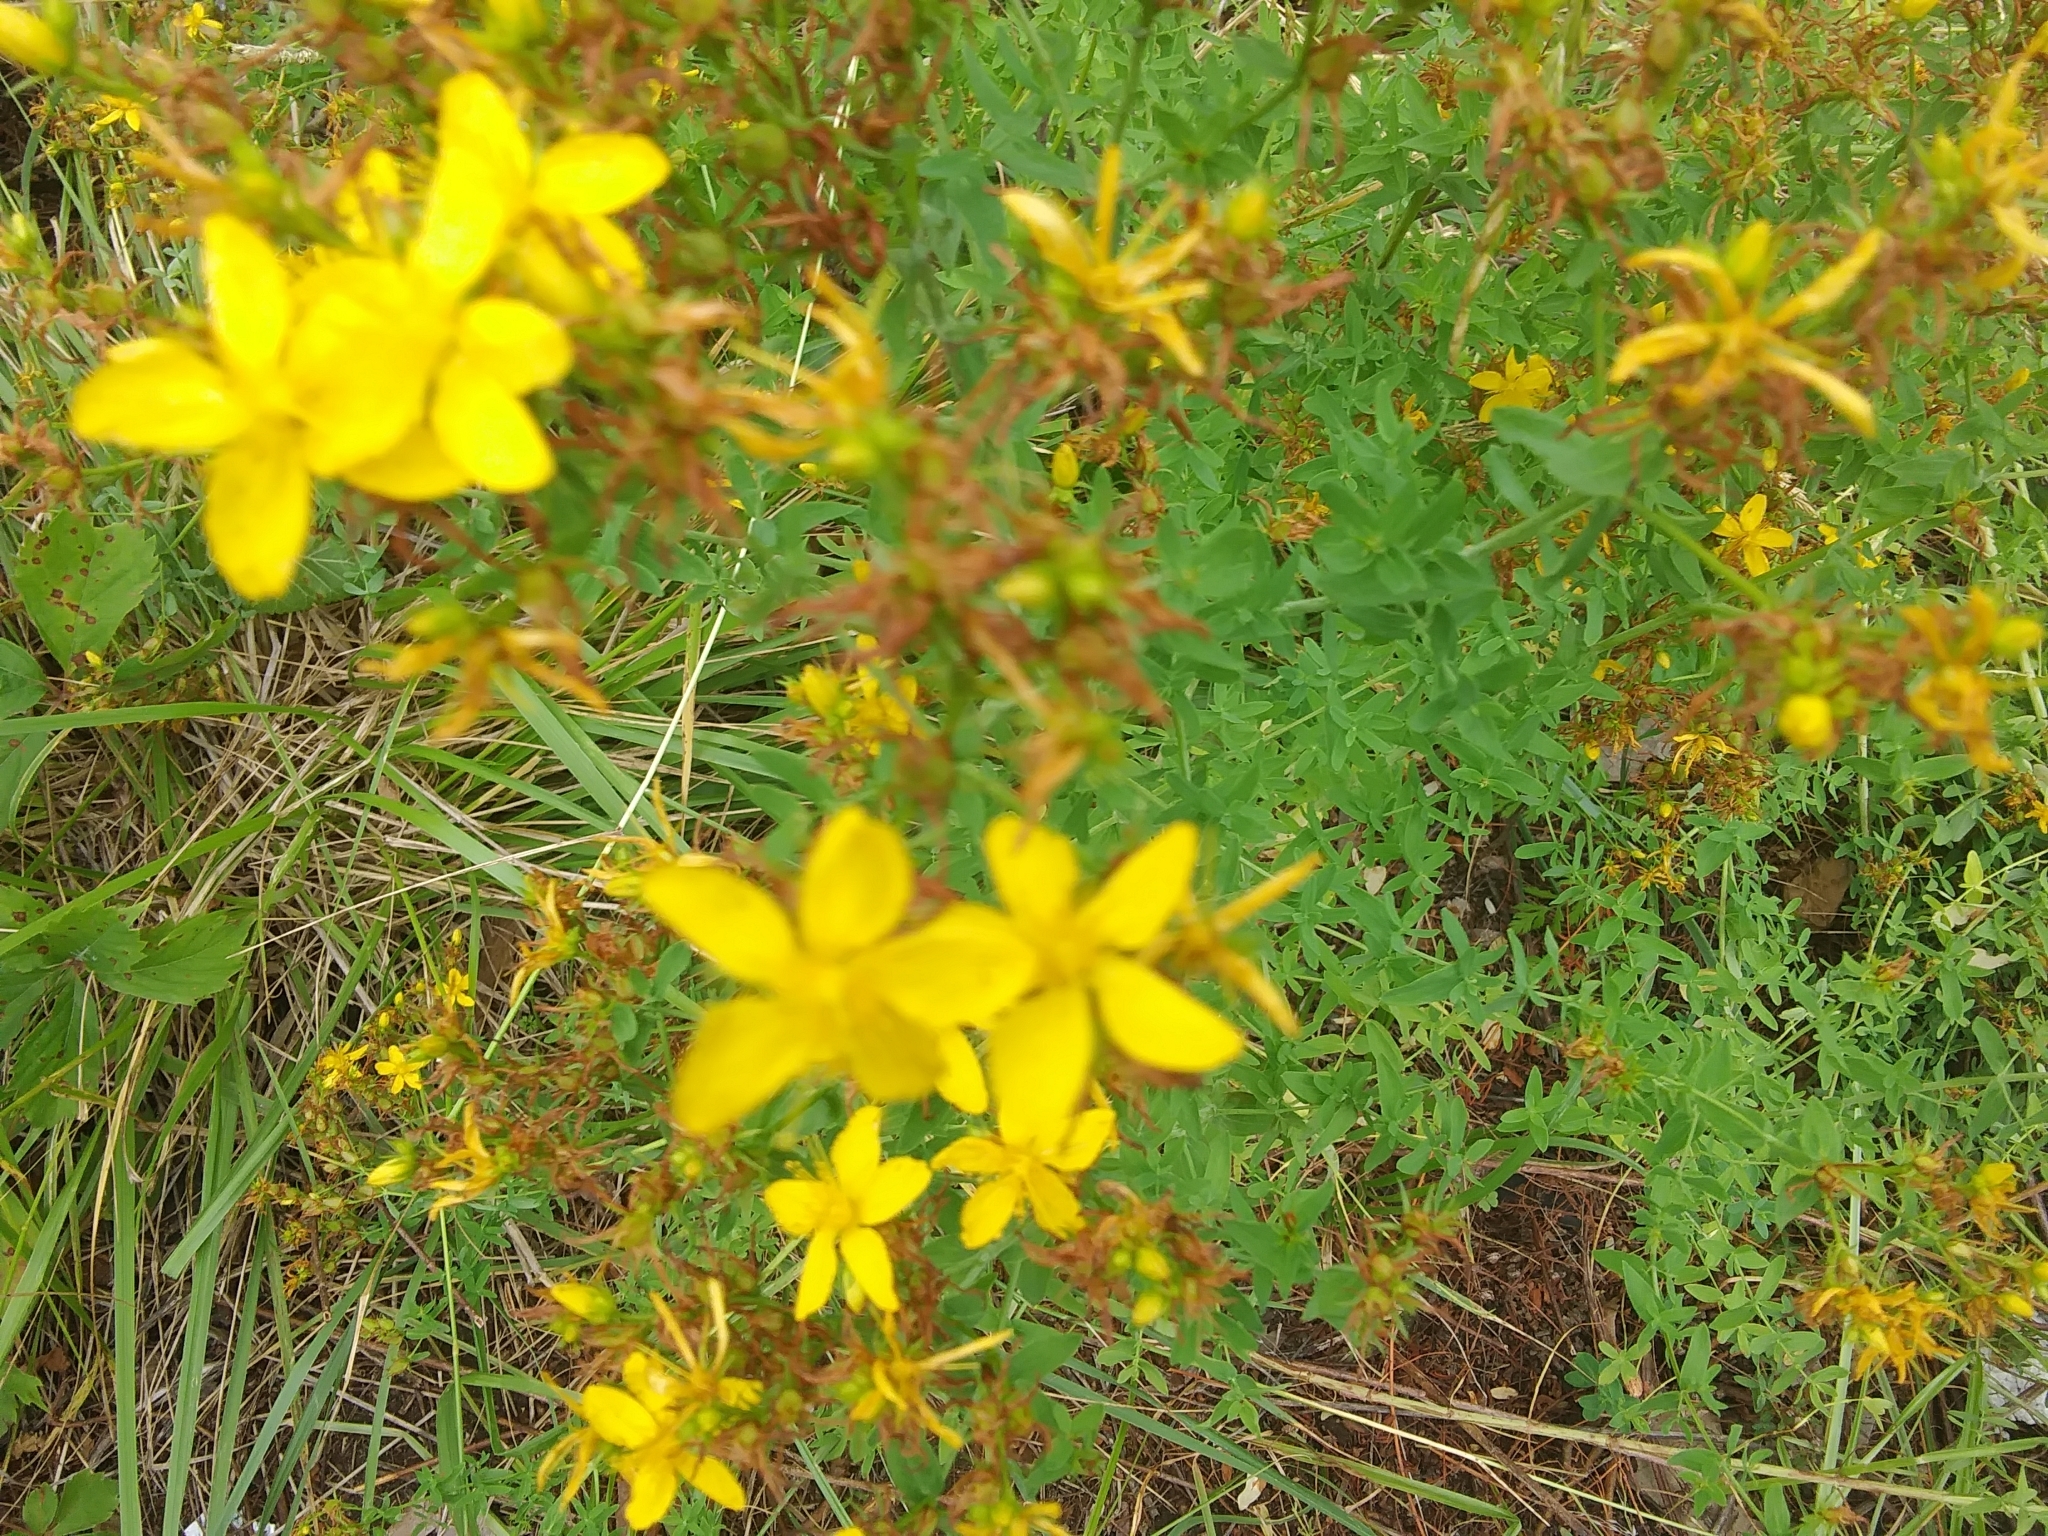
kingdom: Plantae
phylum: Tracheophyta
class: Magnoliopsida
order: Malpighiales
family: Hypericaceae
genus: Hypericum
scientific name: Hypericum perforatum
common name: Common st. johnswort
